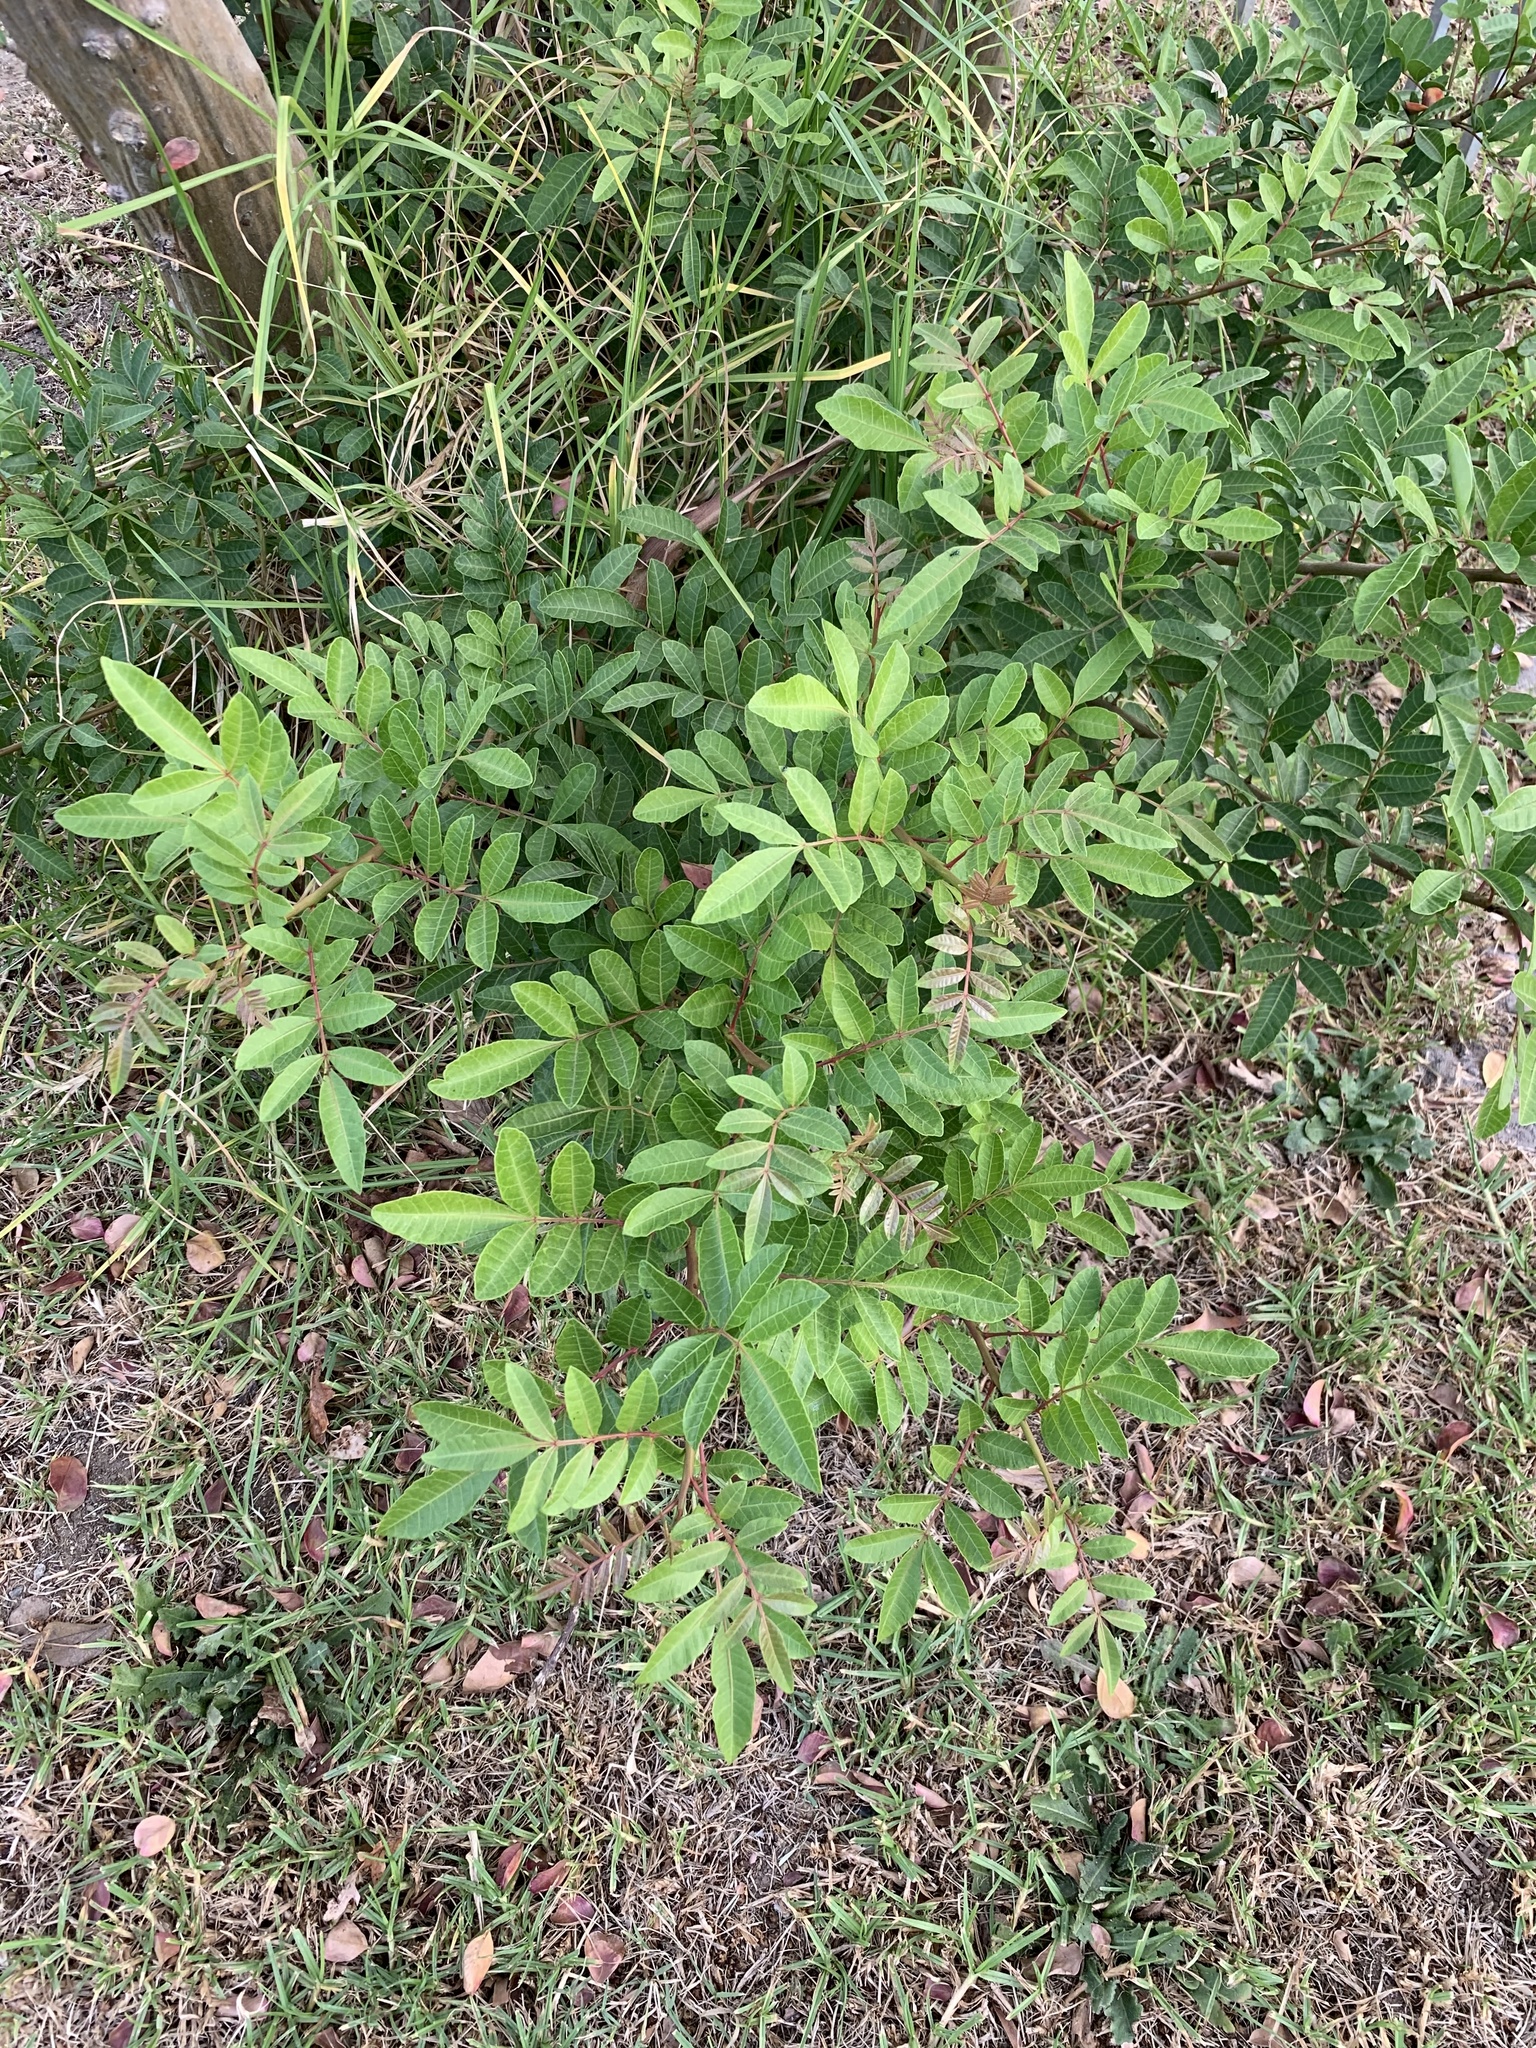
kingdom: Plantae
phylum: Tracheophyta
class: Magnoliopsida
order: Sapindales
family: Anacardiaceae
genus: Schinus
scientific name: Schinus terebinthifolia
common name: Brazilian peppertree
